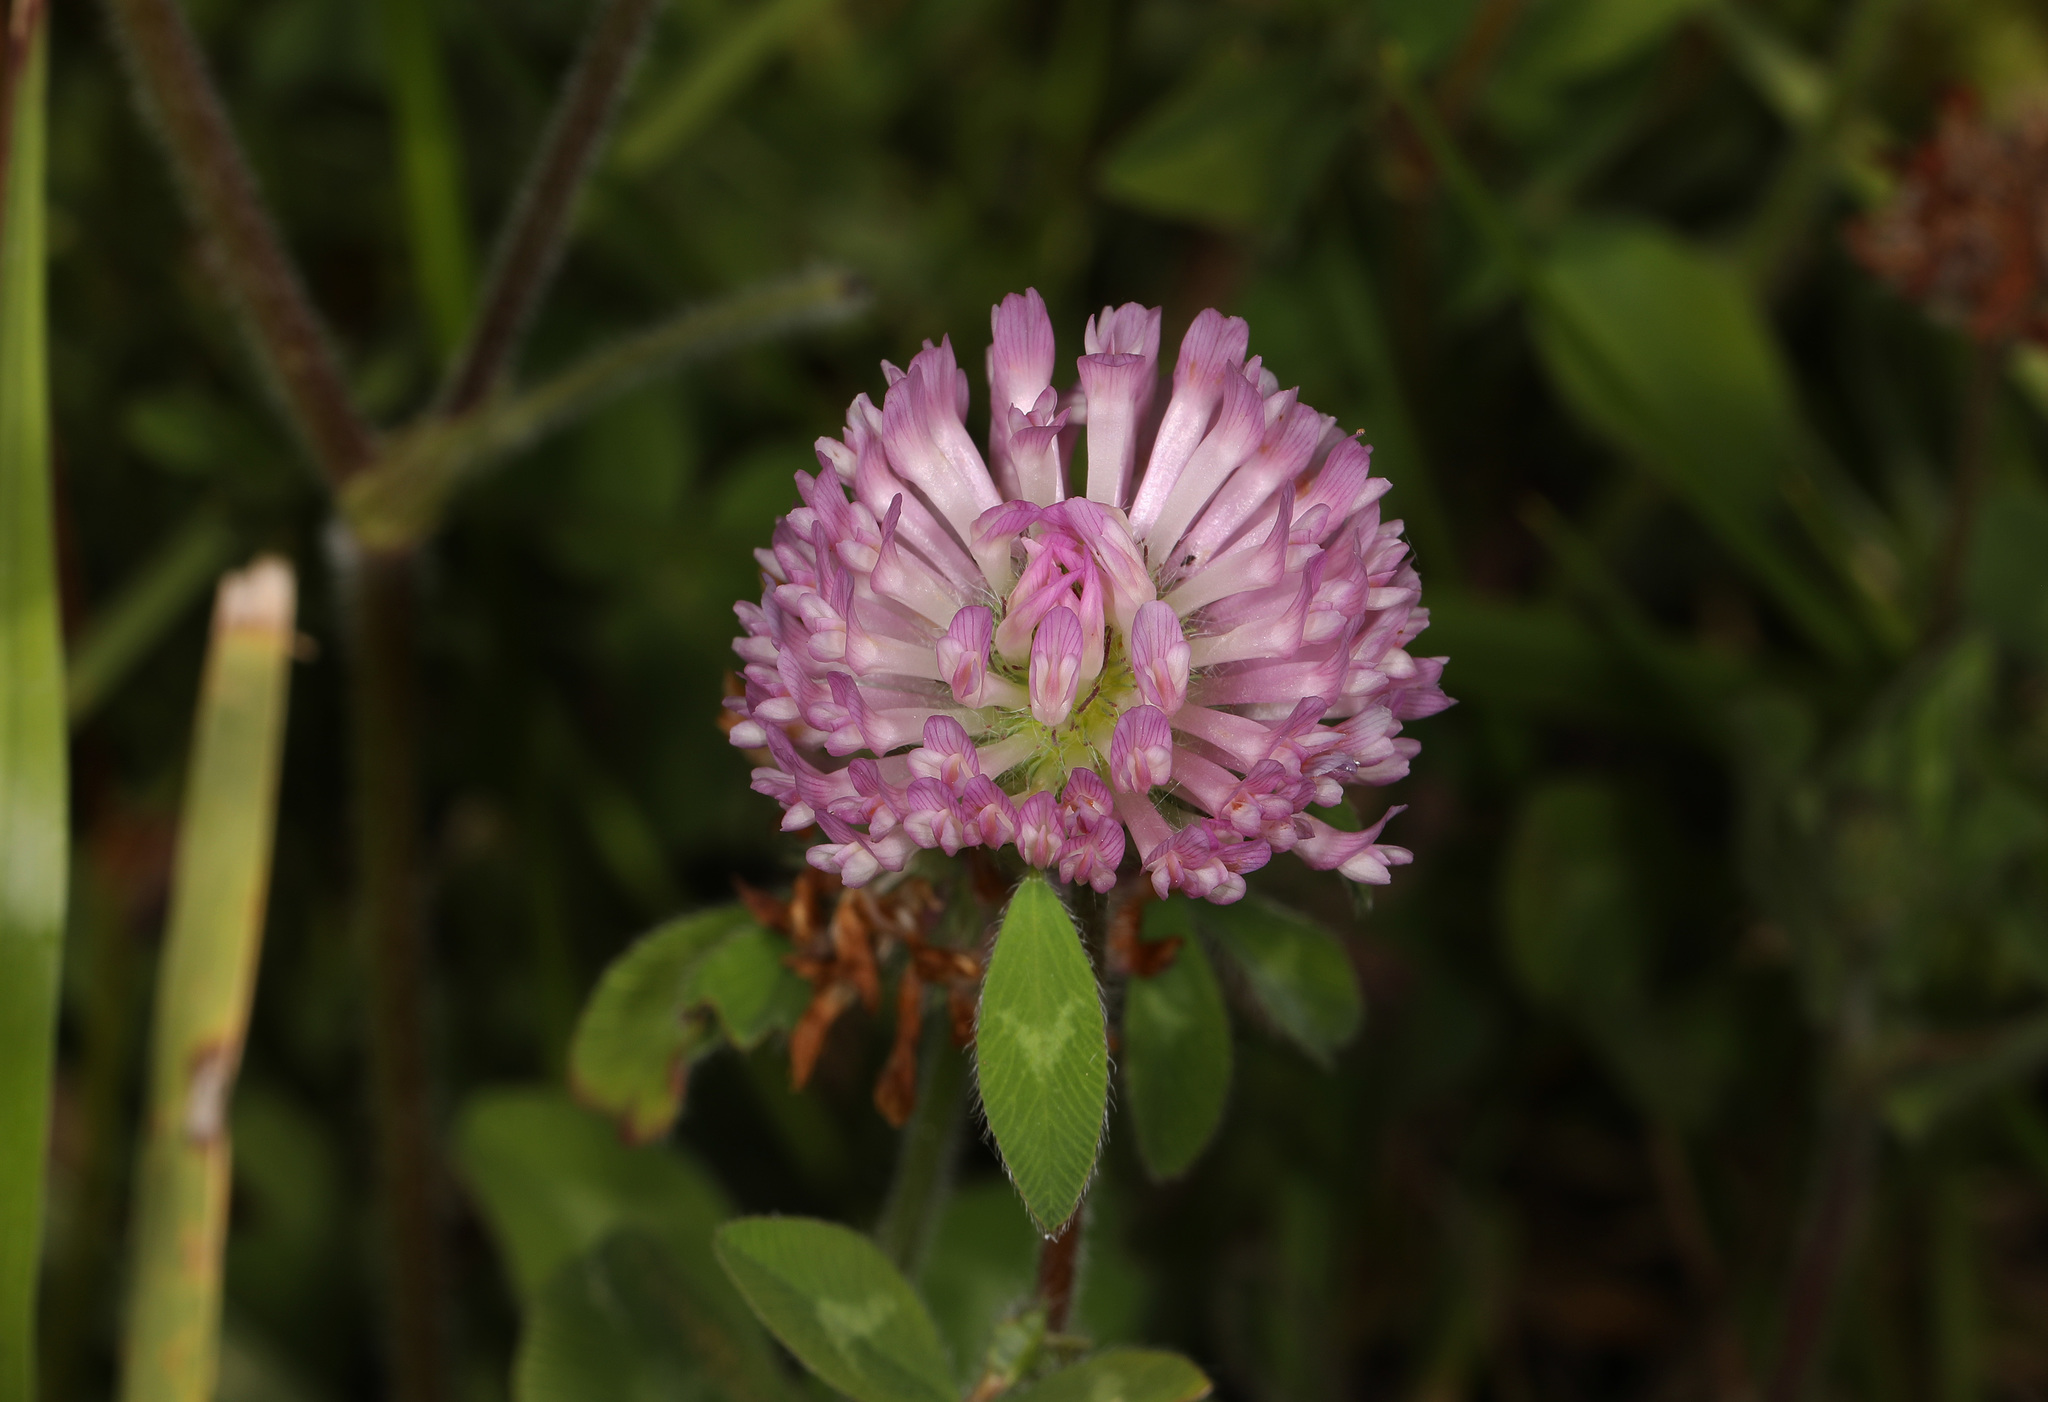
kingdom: Plantae
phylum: Tracheophyta
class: Magnoliopsida
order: Fabales
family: Fabaceae
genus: Trifolium
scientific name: Trifolium pratense
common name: Red clover
